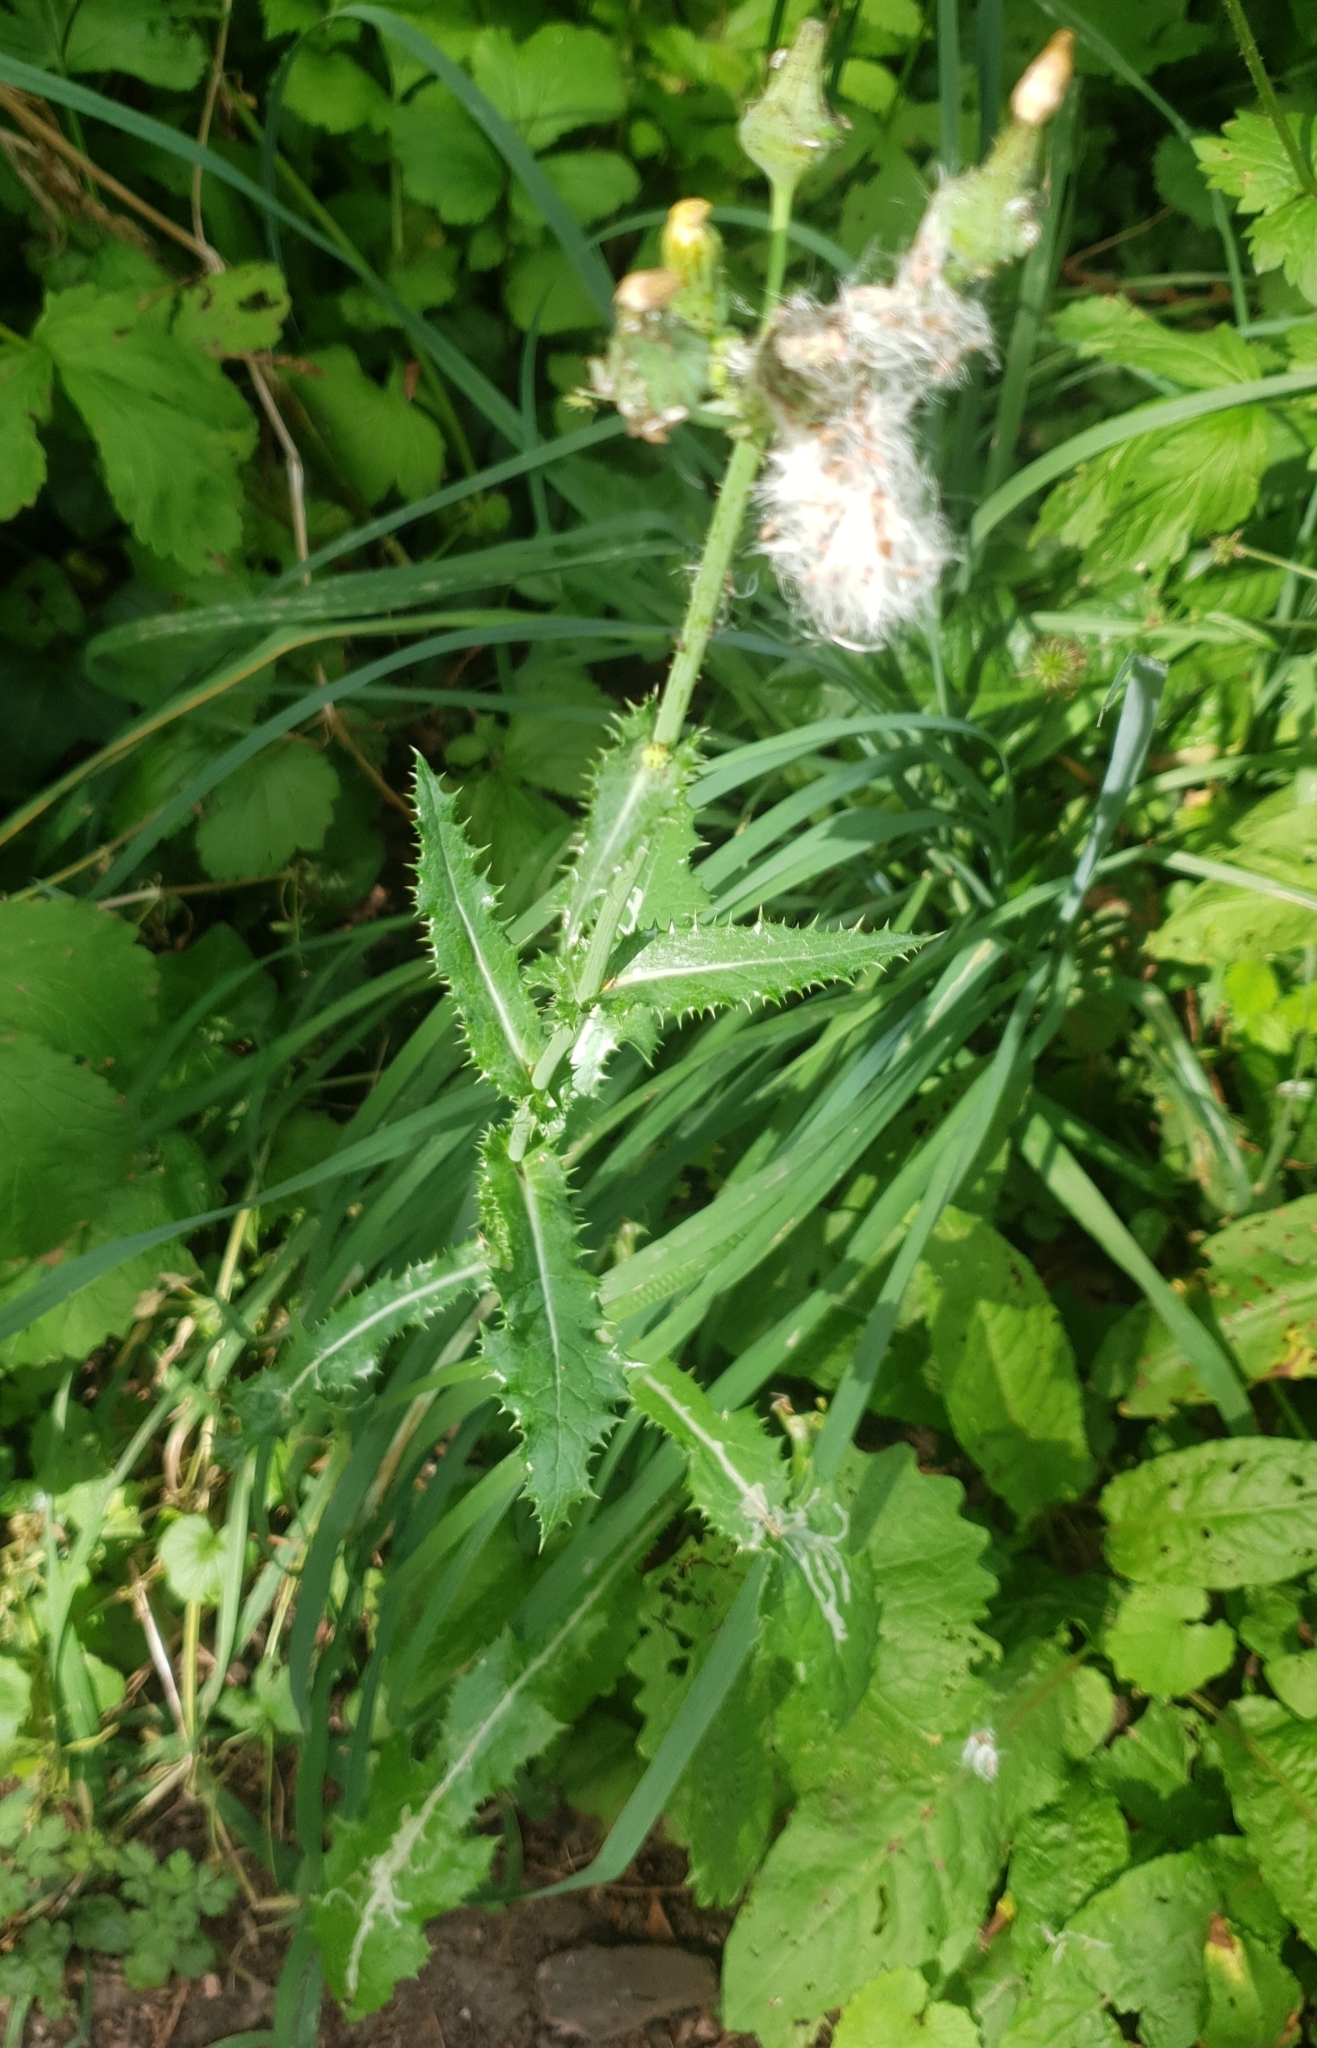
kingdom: Plantae
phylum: Tracheophyta
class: Magnoliopsida
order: Asterales
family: Asteraceae
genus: Sonchus
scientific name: Sonchus asper
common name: Prickly sow-thistle
